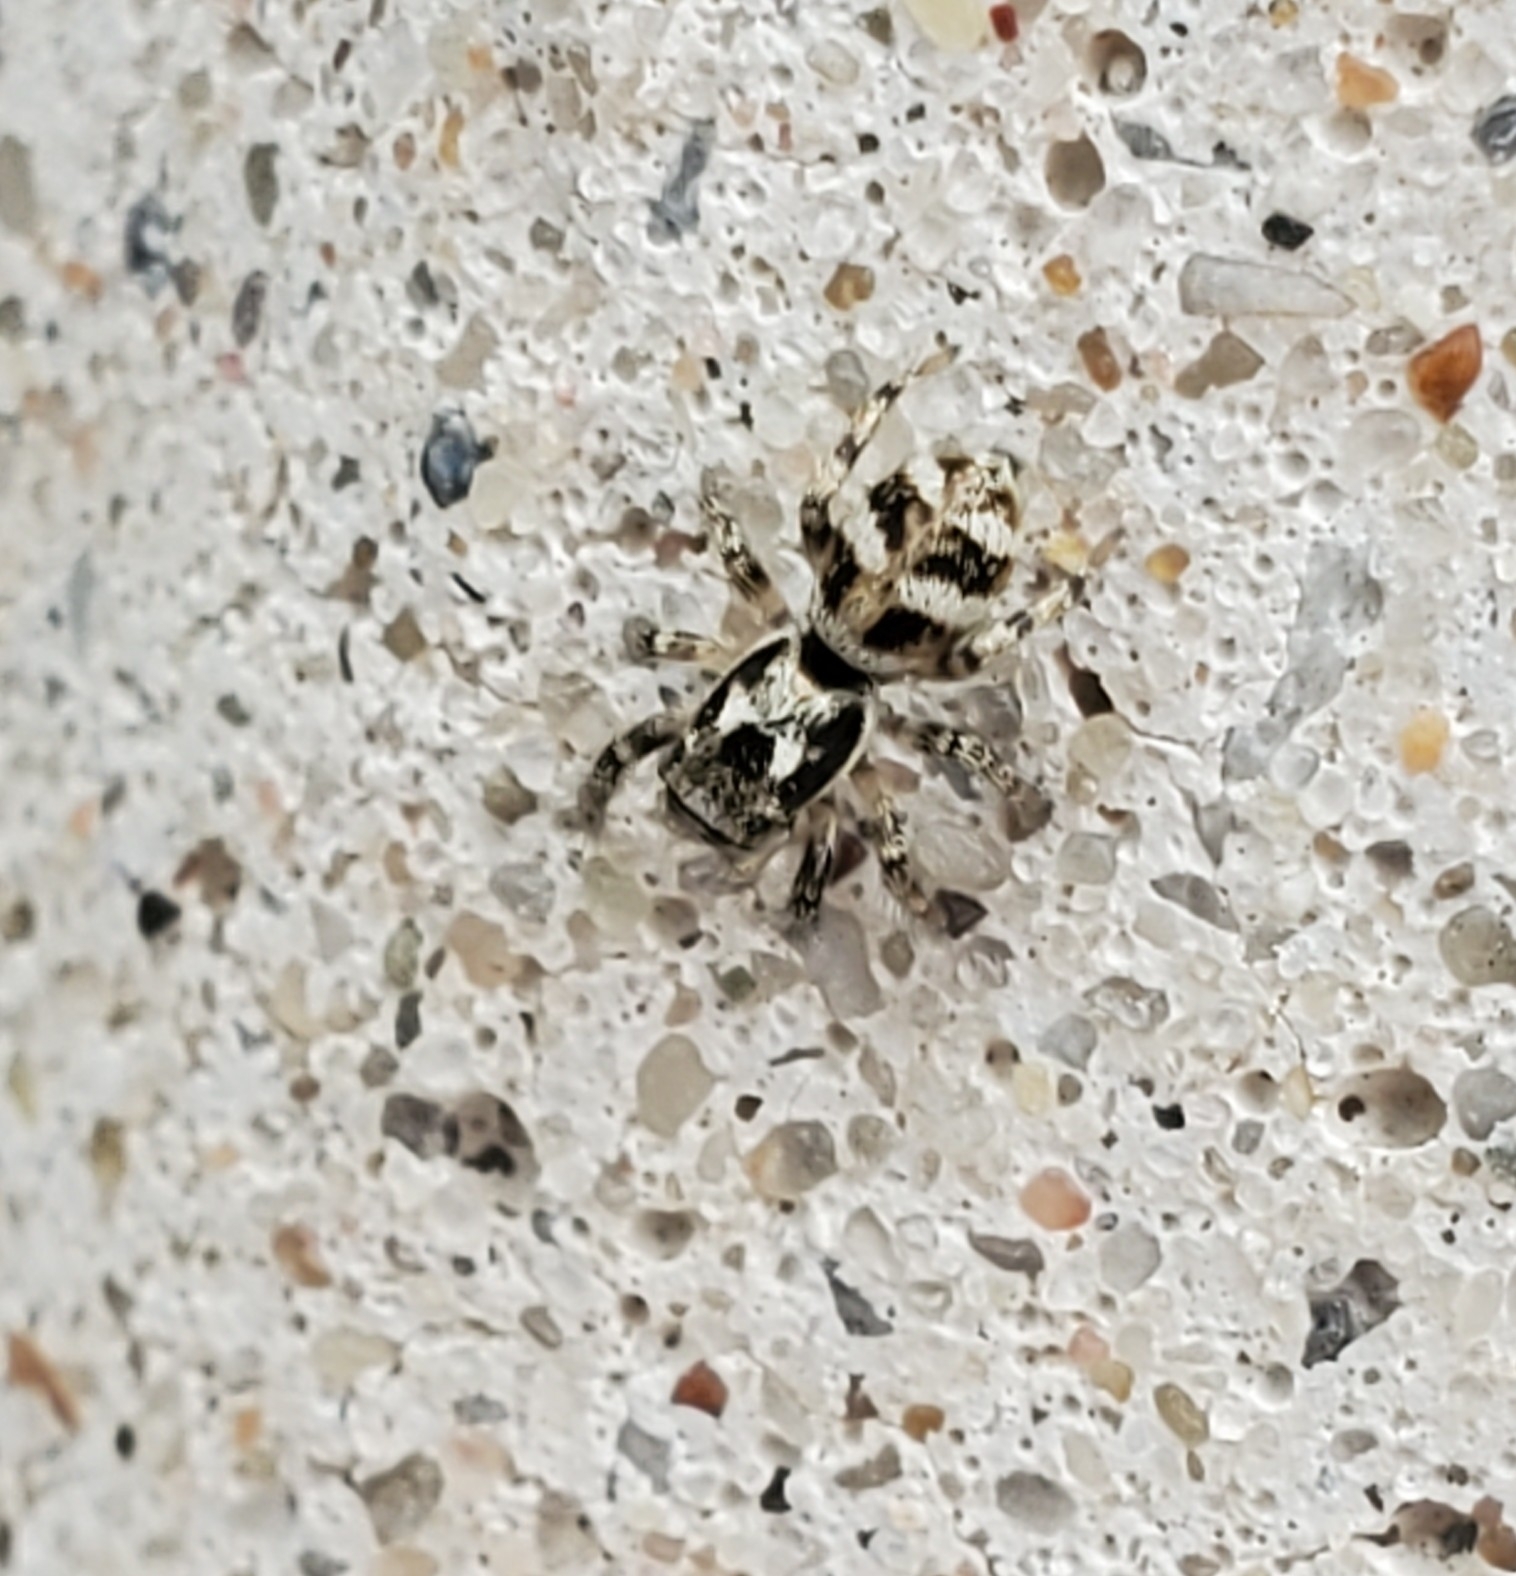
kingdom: Animalia
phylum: Arthropoda
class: Arachnida
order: Araneae
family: Salticidae
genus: Salticus
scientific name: Salticus scenicus
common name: Zebra jumper
